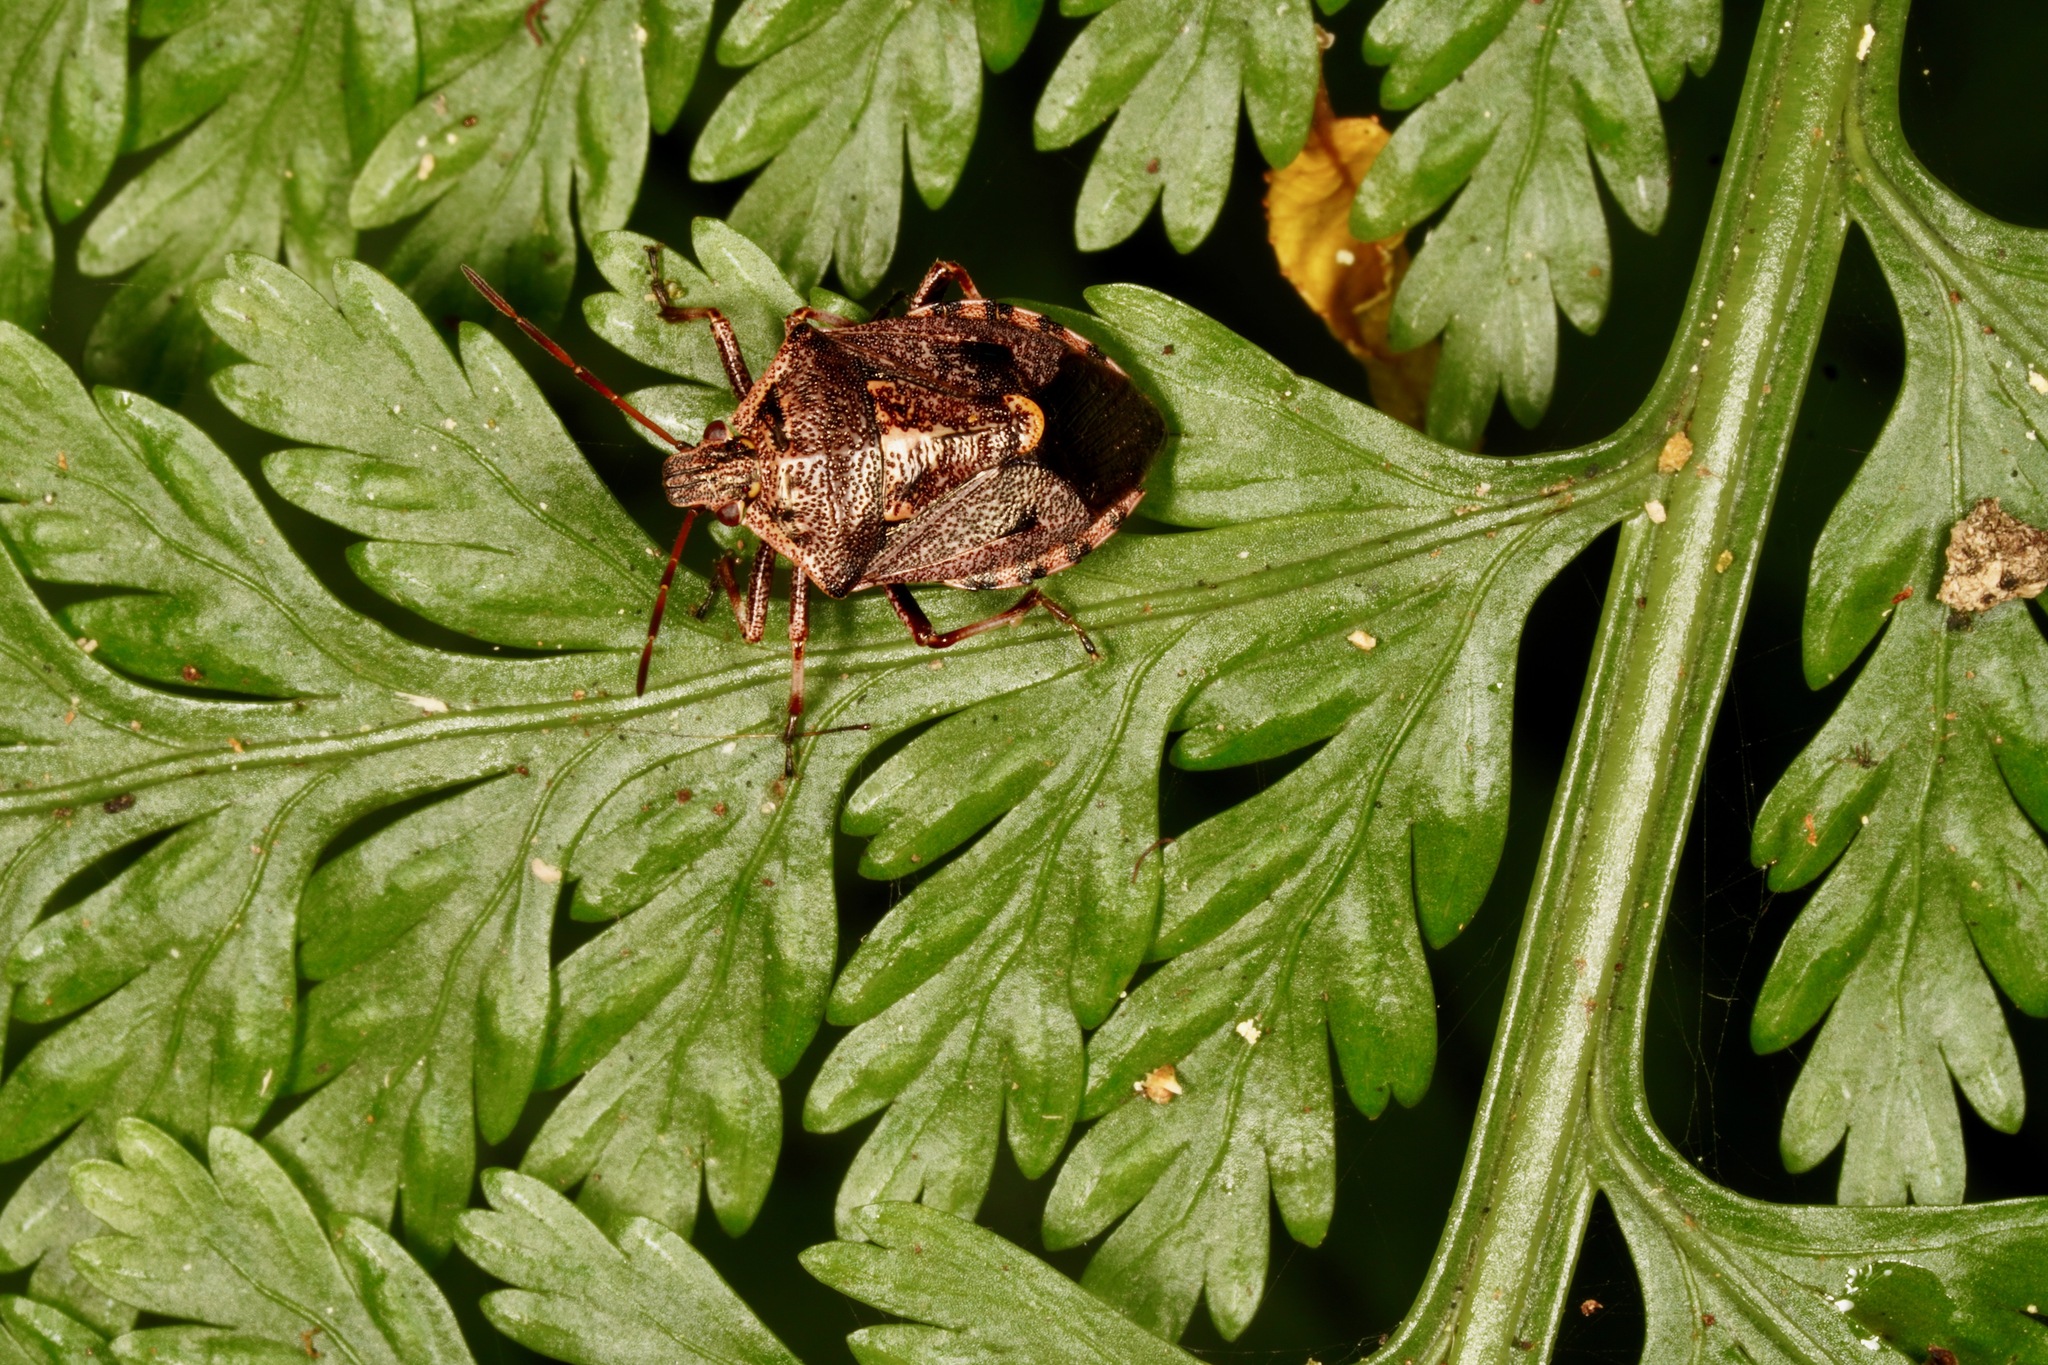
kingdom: Animalia
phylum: Arthropoda
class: Insecta
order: Hemiptera
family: Pentatomidae
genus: Cermatulus
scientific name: Cermatulus nasalis
